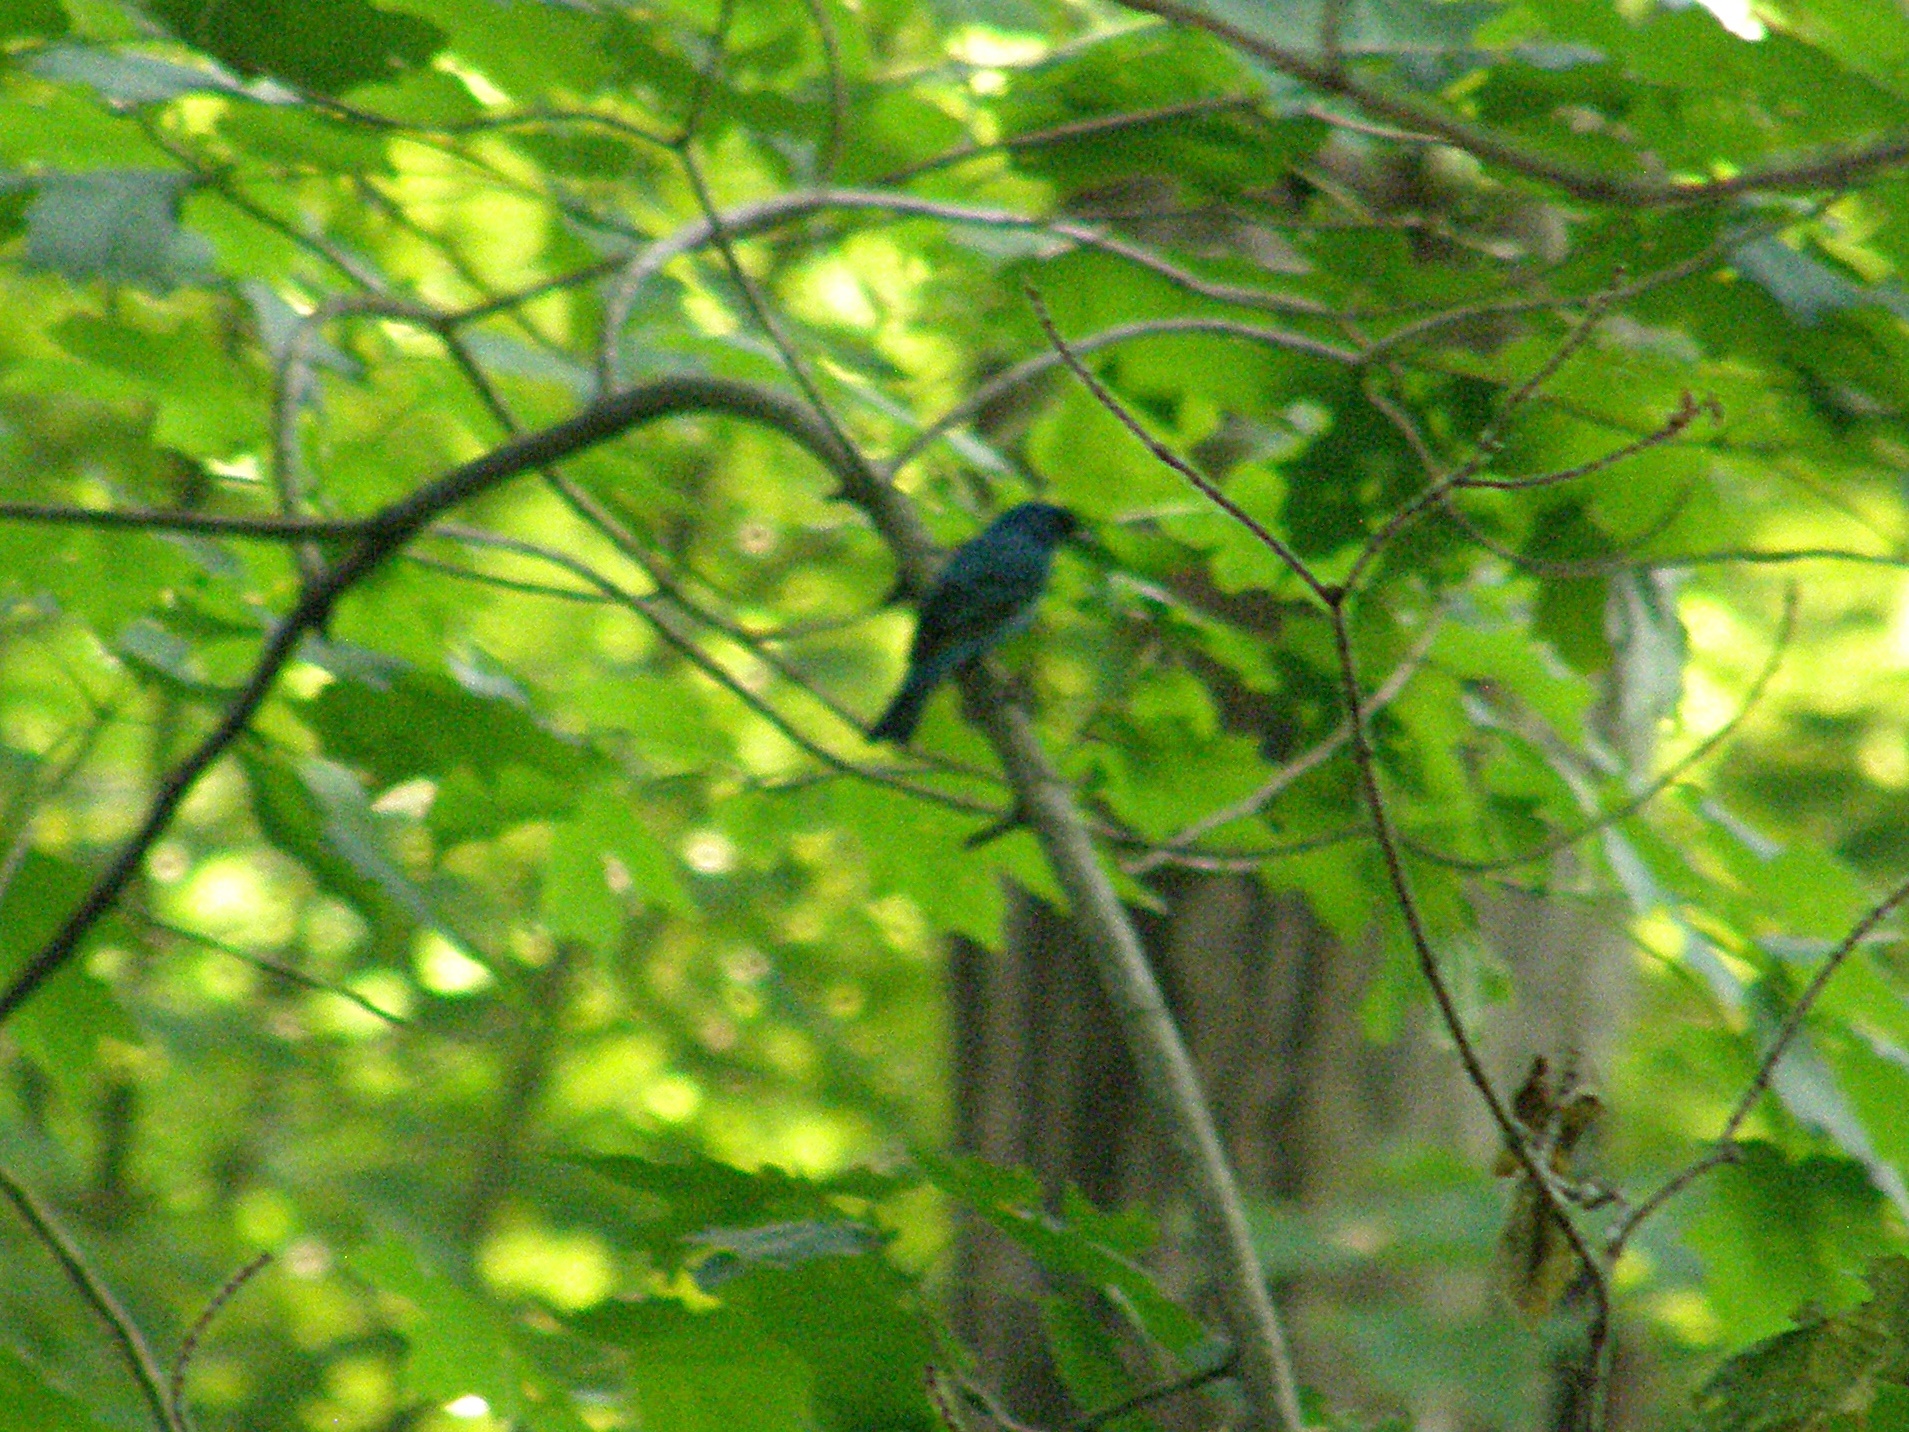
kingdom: Animalia
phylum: Chordata
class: Aves
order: Passeriformes
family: Cardinalidae
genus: Passerina
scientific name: Passerina cyanea
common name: Indigo bunting
